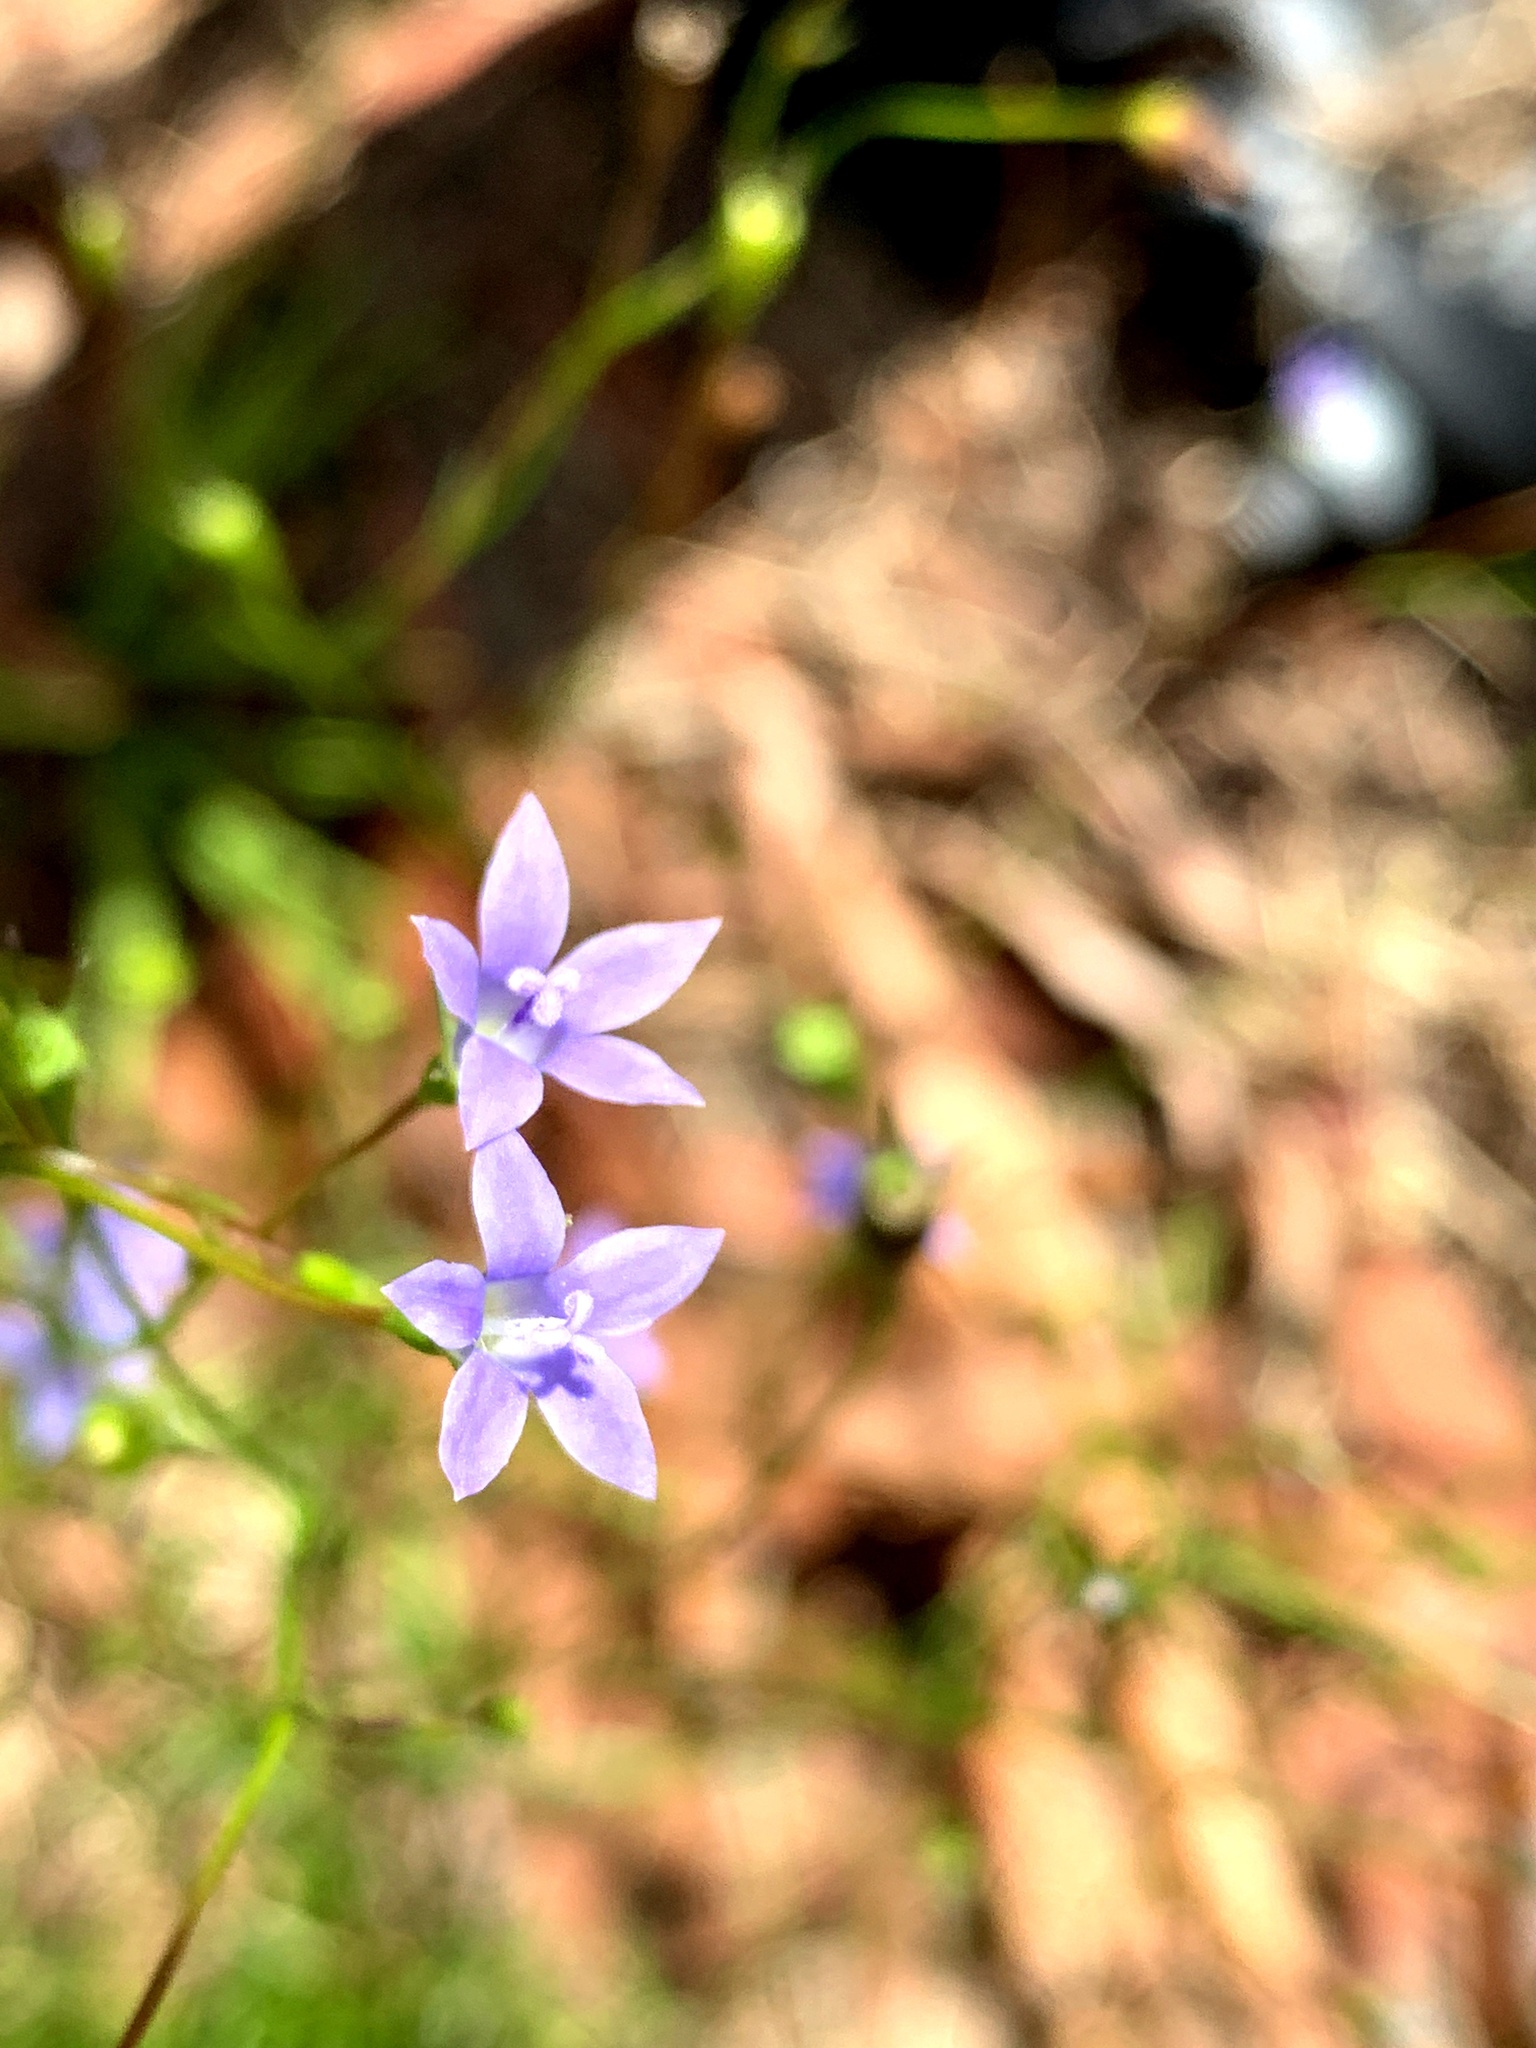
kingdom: Plantae
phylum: Tracheophyta
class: Magnoliopsida
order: Asterales
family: Campanulaceae
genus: Wahlenbergia
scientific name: Wahlenbergia gracilis
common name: Harebell
